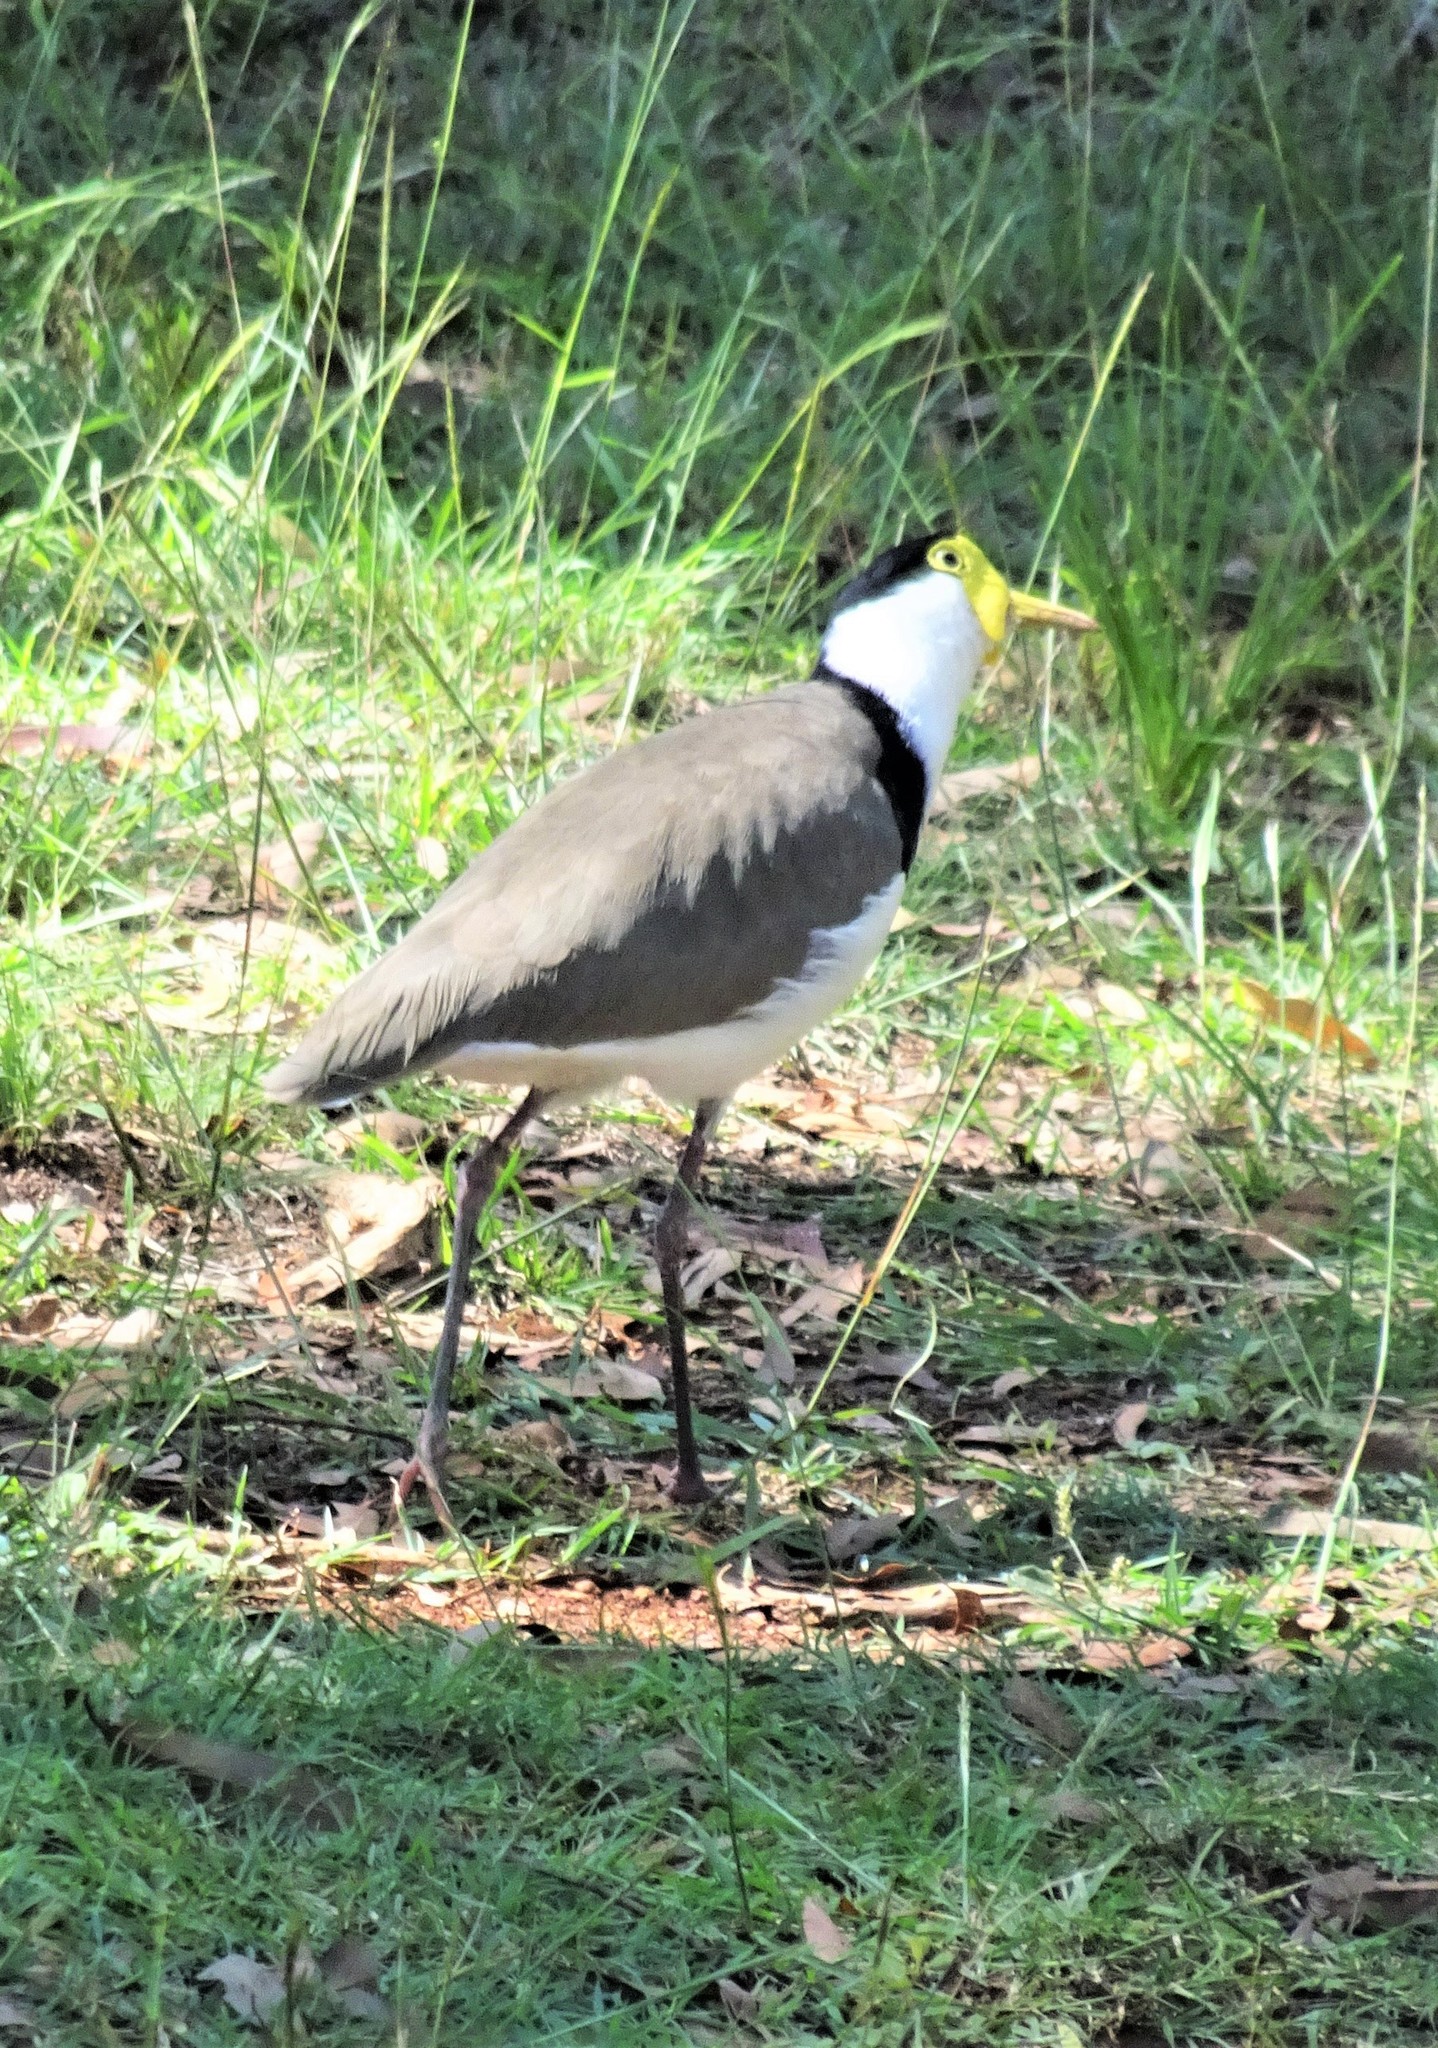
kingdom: Animalia
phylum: Chordata
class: Aves
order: Charadriiformes
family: Charadriidae
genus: Vanellus
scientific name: Vanellus miles
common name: Masked lapwing
